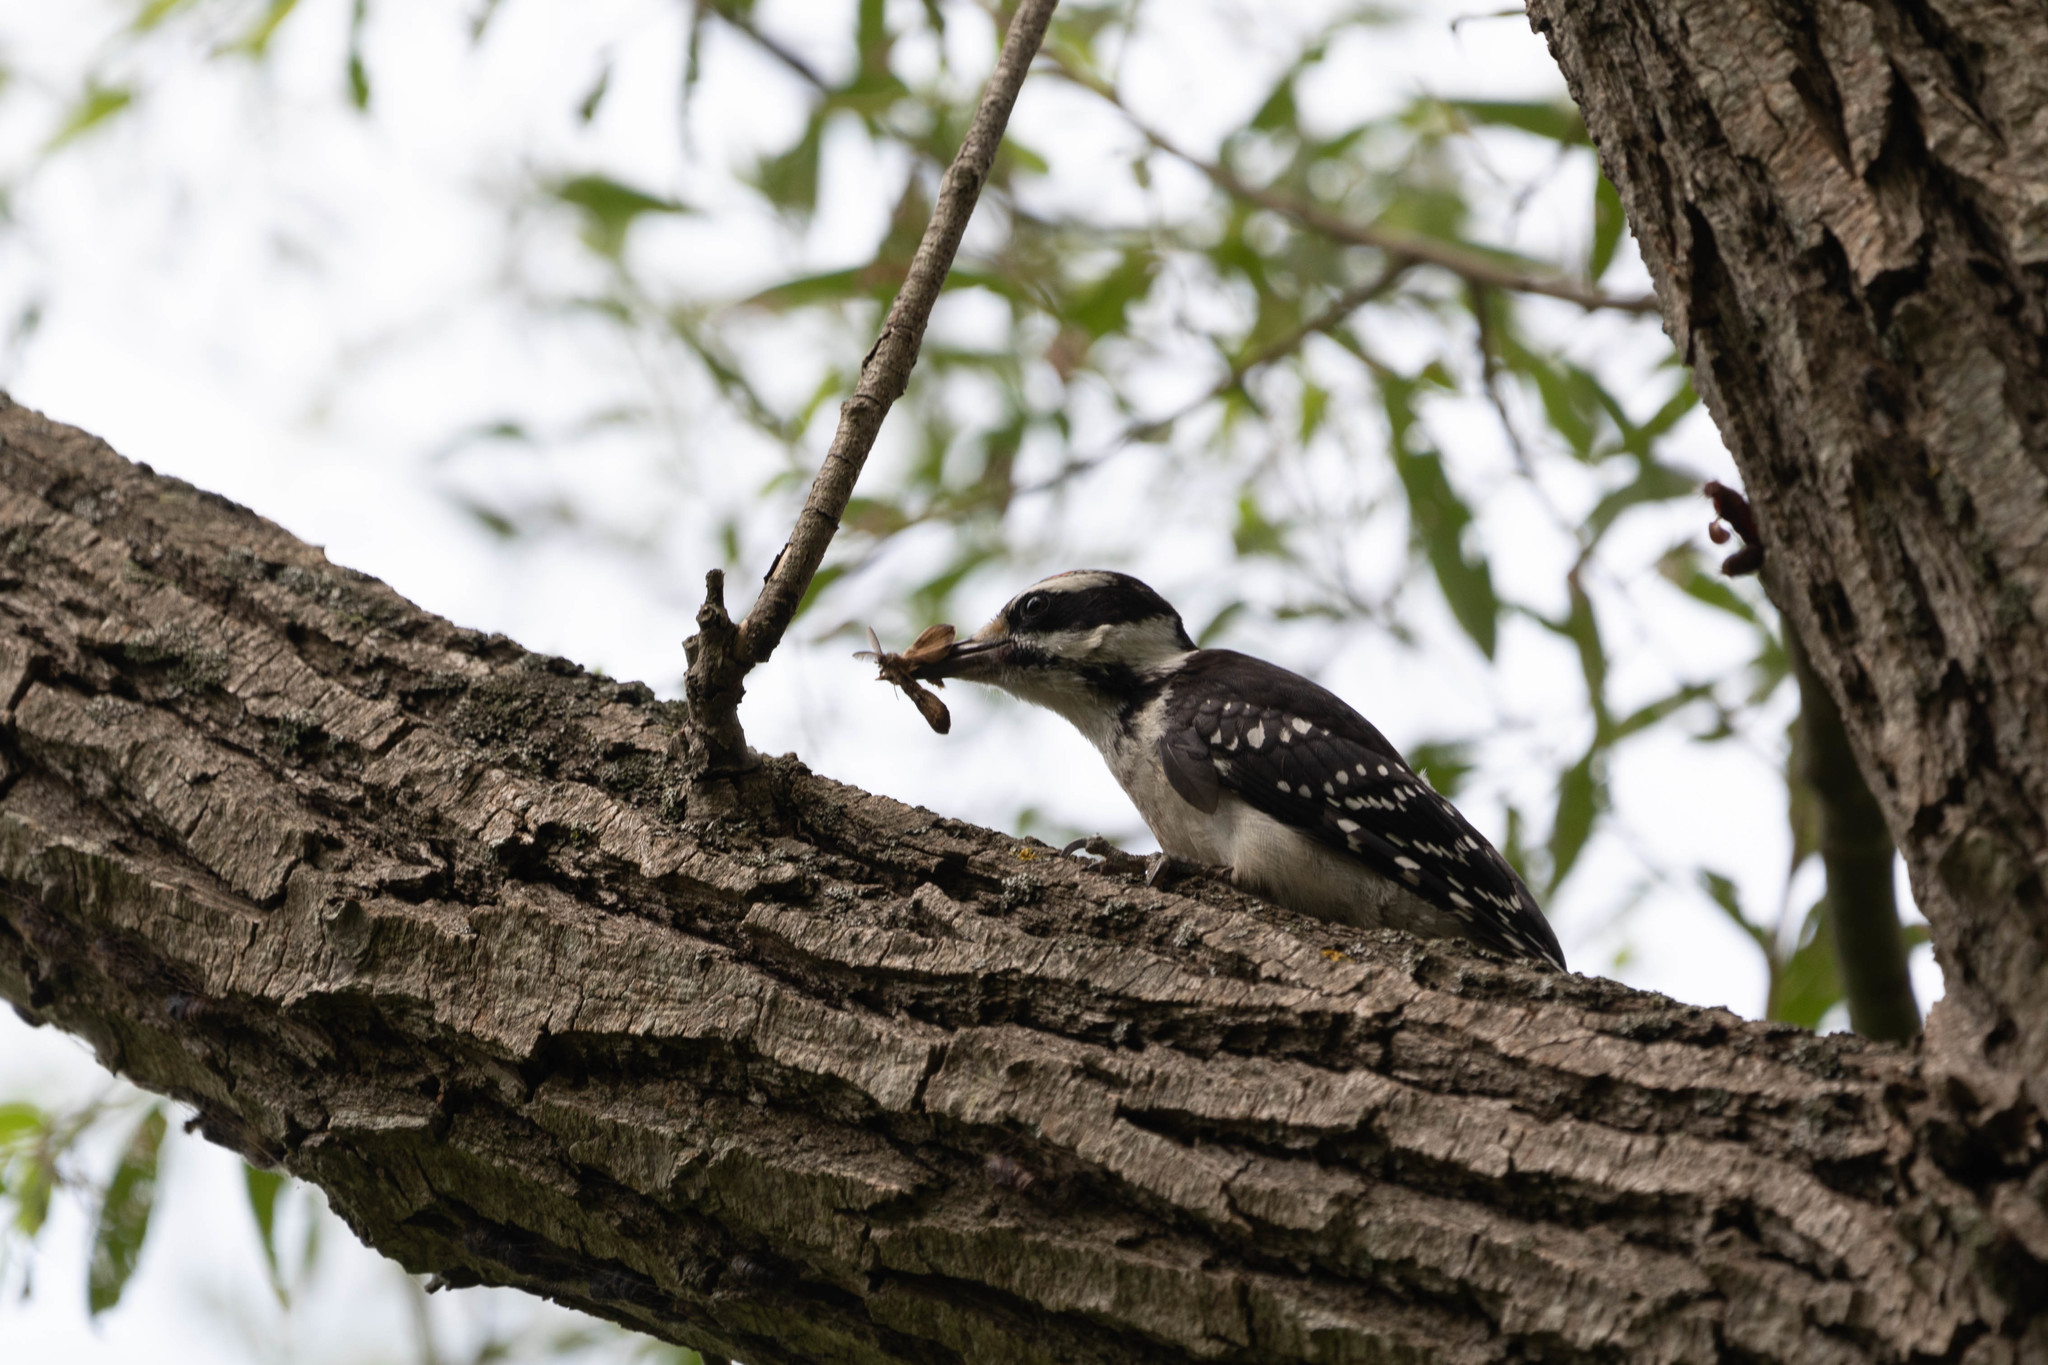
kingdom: Animalia
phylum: Chordata
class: Aves
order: Piciformes
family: Picidae
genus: Leuconotopicus
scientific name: Leuconotopicus villosus
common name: Hairy woodpecker
